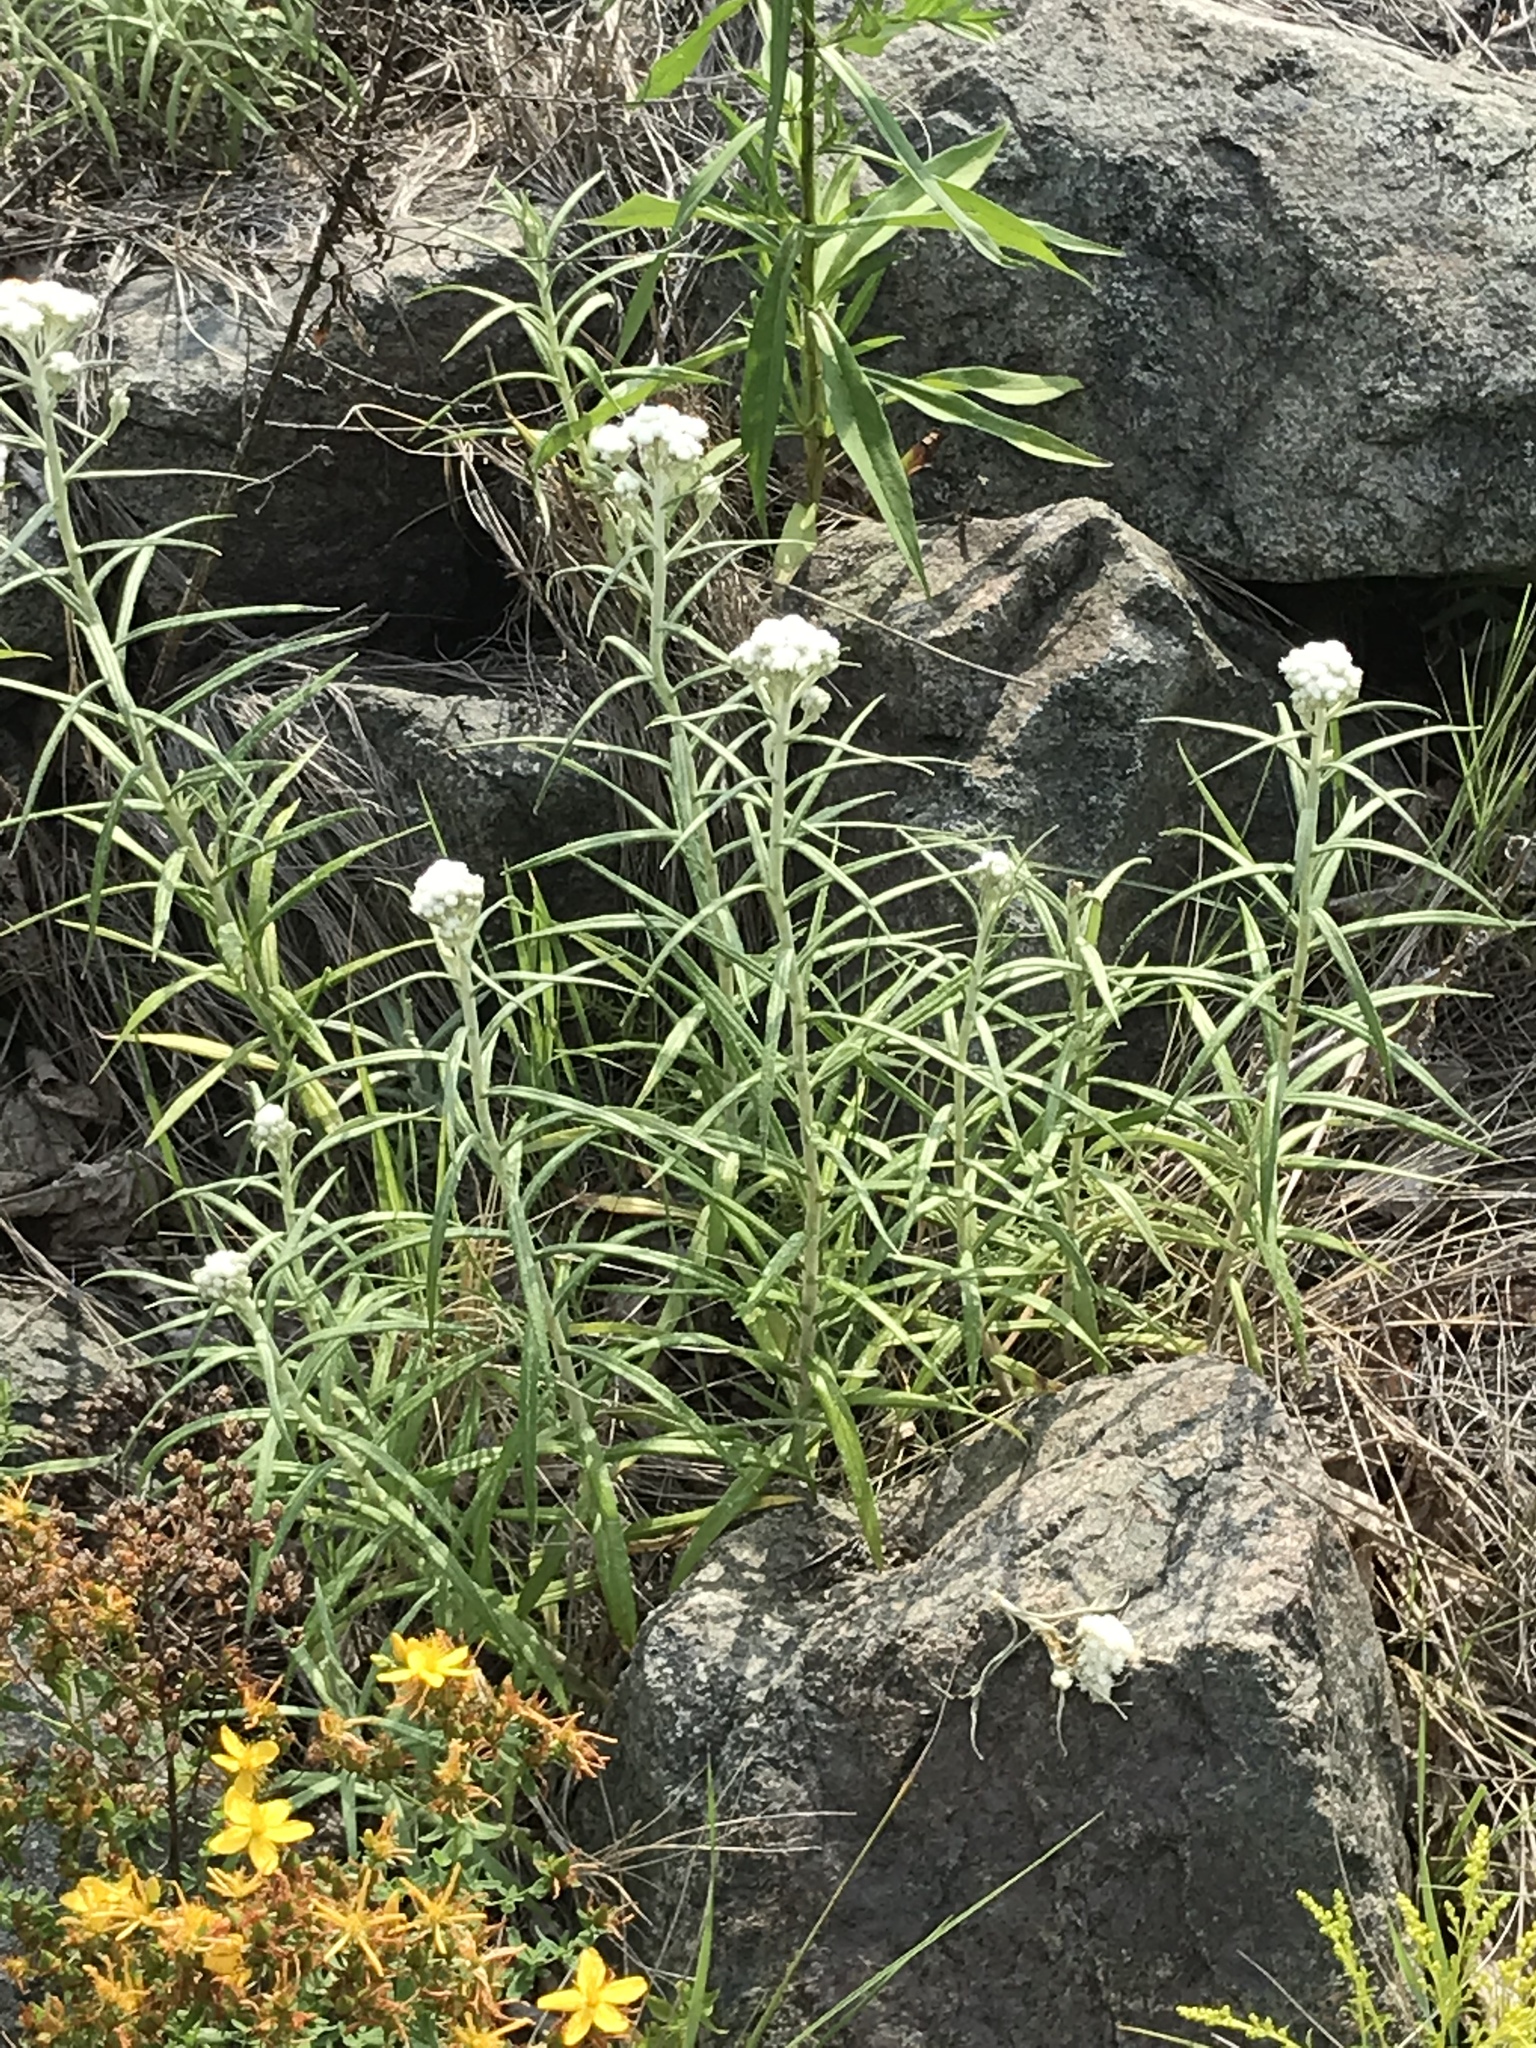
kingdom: Plantae
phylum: Tracheophyta
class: Magnoliopsida
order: Asterales
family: Asteraceae
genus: Anaphalis
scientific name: Anaphalis margaritacea
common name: Pearly everlasting
